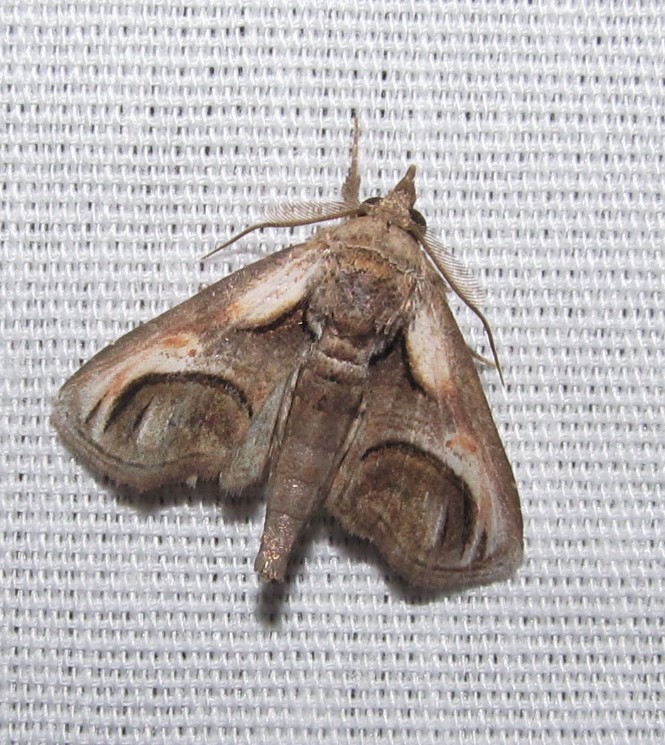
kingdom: Animalia
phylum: Arthropoda
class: Insecta
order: Lepidoptera
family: Euteliidae
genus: Paectes
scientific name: Paectes oculatrix
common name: Eyed paectes moth
